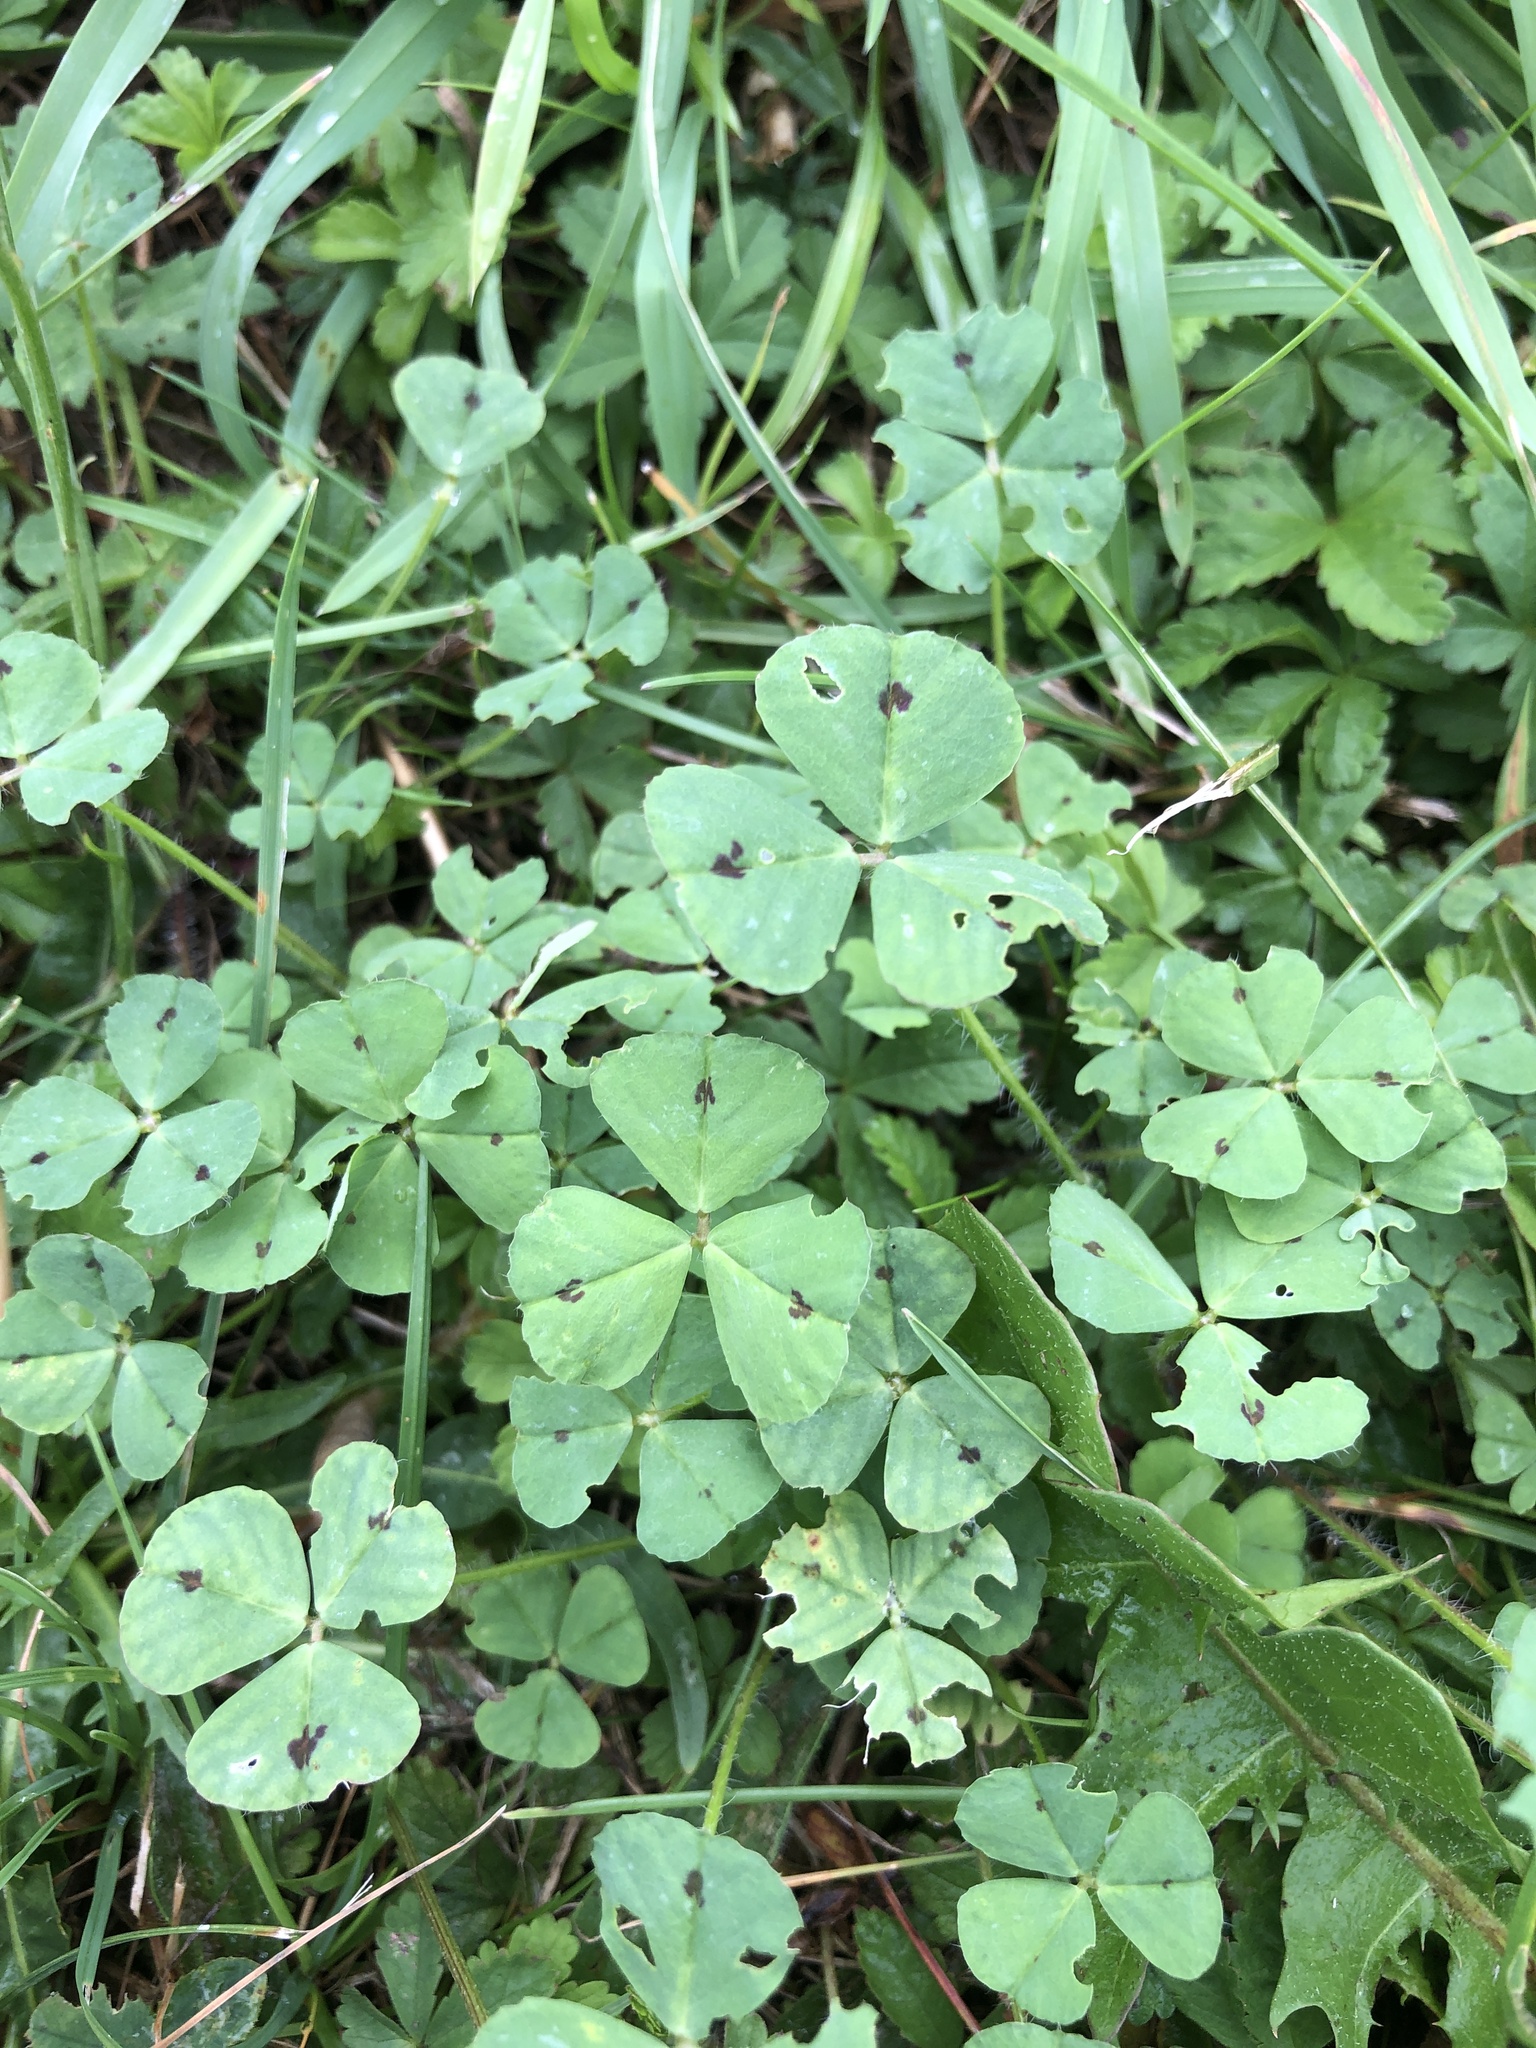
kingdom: Plantae
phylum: Tracheophyta
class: Magnoliopsida
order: Fabales
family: Fabaceae
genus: Medicago
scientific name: Medicago arabica
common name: Spotted medick
